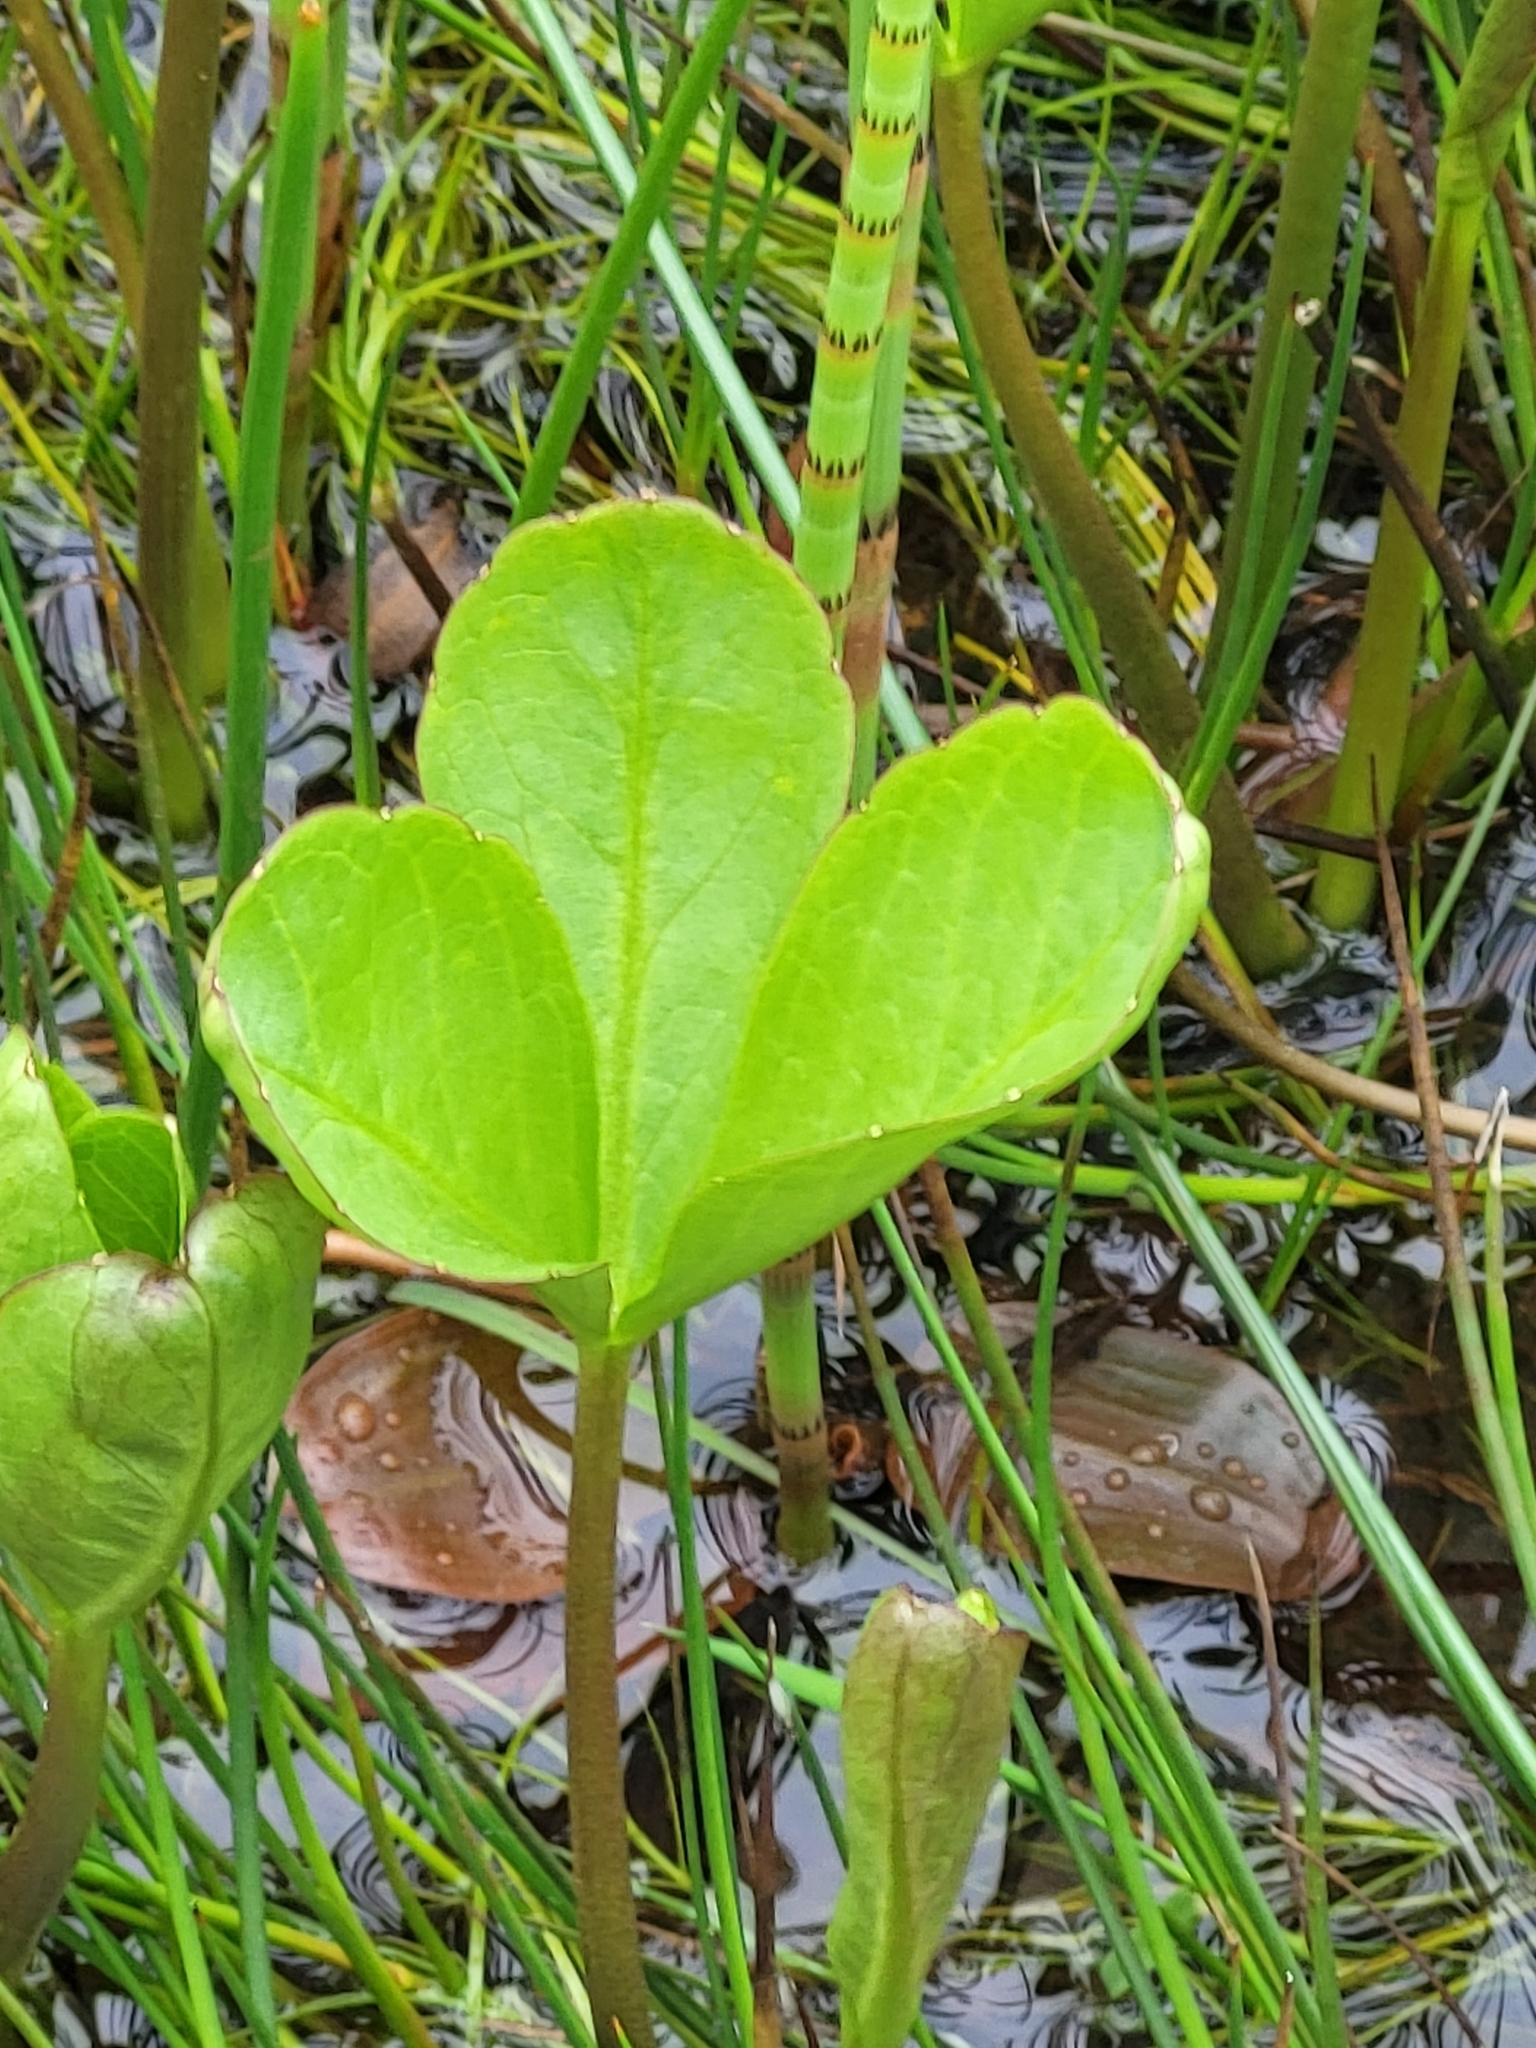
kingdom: Plantae
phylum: Tracheophyta
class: Magnoliopsida
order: Asterales
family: Menyanthaceae
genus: Menyanthes
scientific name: Menyanthes trifoliata
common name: Bogbean
